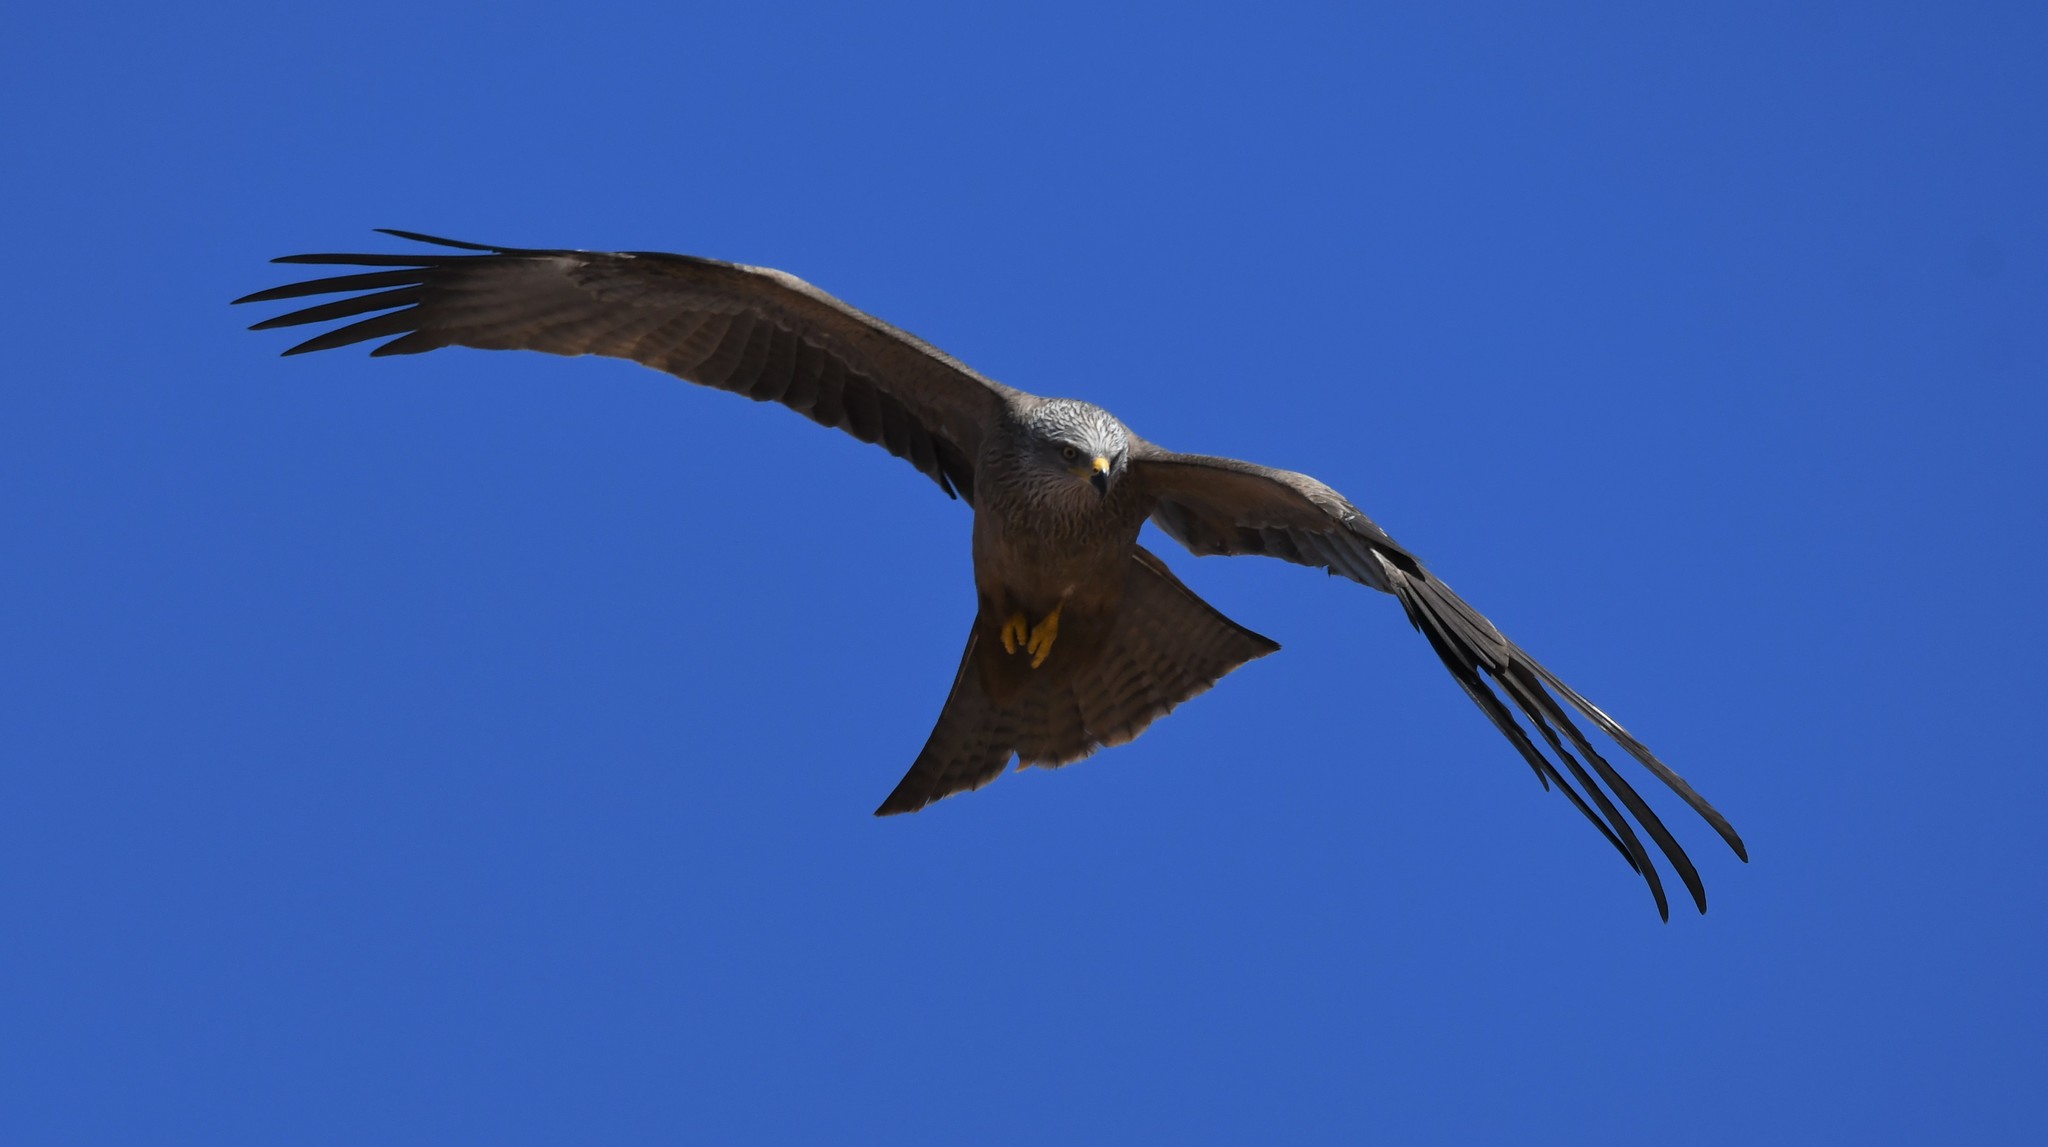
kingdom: Animalia
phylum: Chordata
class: Aves
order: Accipitriformes
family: Accipitridae
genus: Milvus
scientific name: Milvus migrans
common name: Black kite
